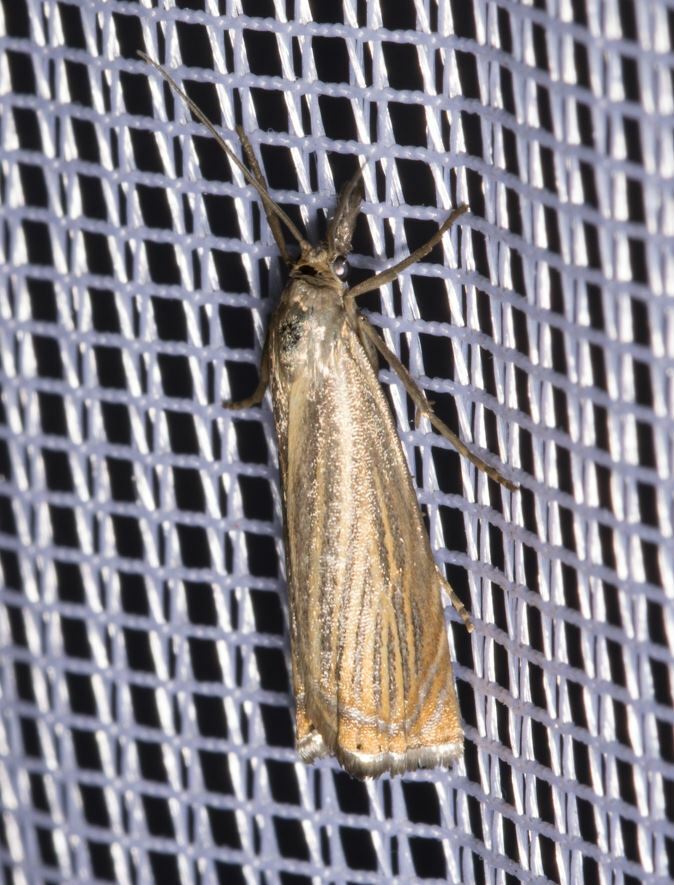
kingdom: Animalia
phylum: Arthropoda
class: Insecta
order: Lepidoptera
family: Crambidae
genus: Chrysoteuchia
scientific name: Chrysoteuchia culmella
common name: Garden grass-veneer
